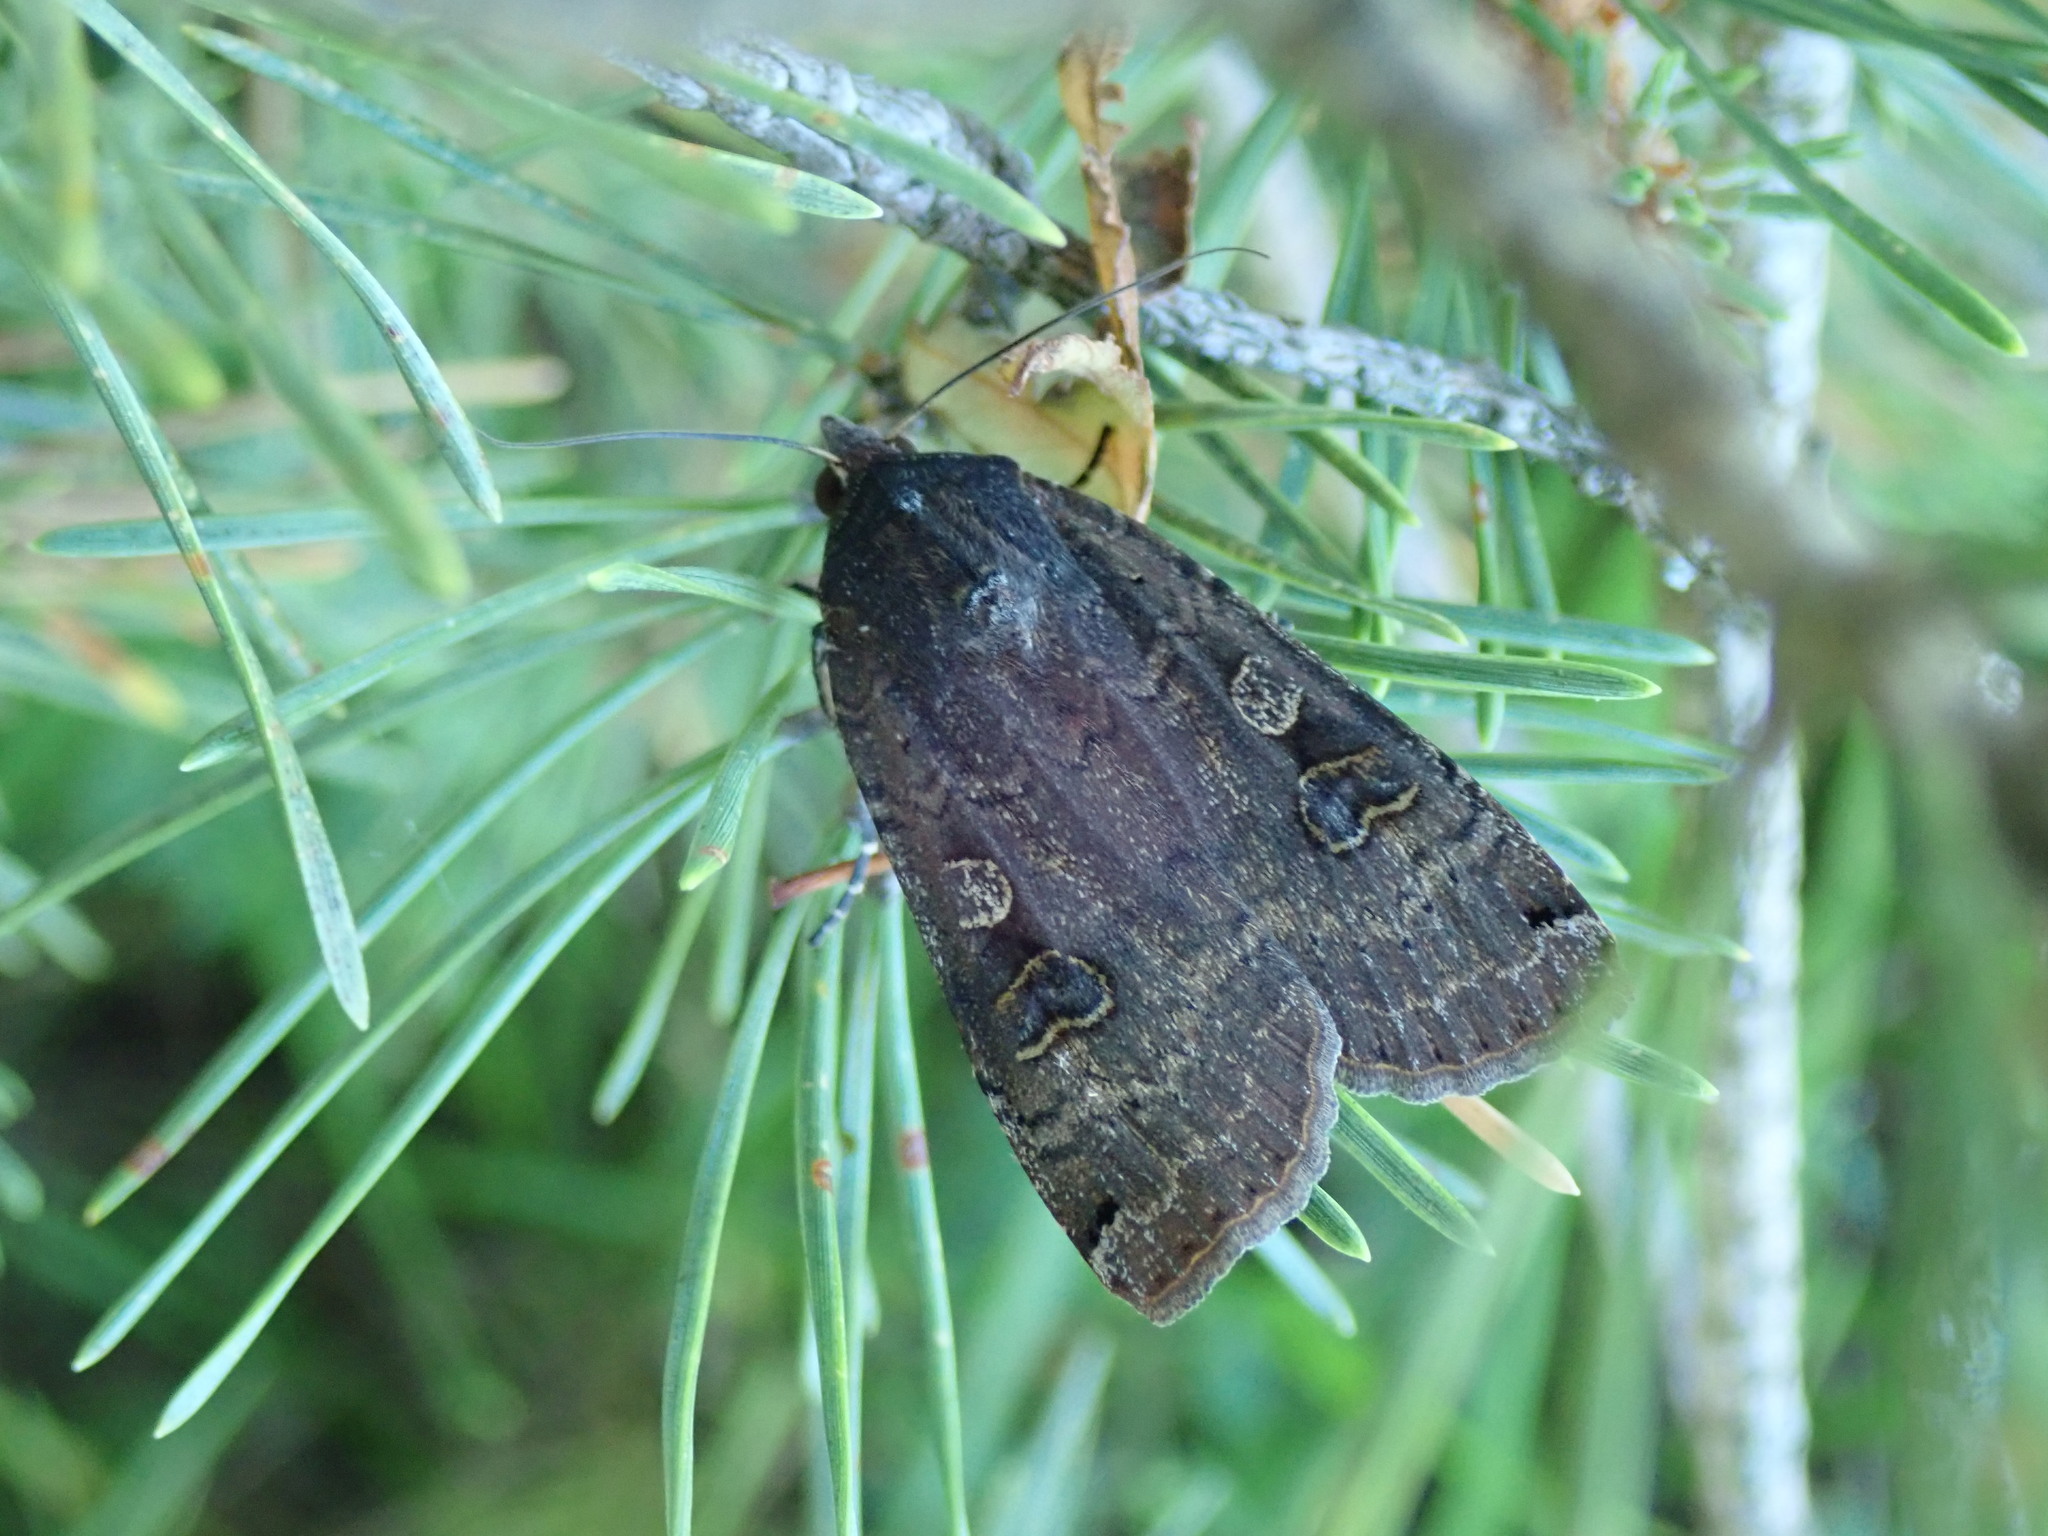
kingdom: Animalia
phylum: Arthropoda
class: Insecta
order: Lepidoptera
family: Noctuidae
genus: Noctua
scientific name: Noctua pronuba
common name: Large yellow underwing
